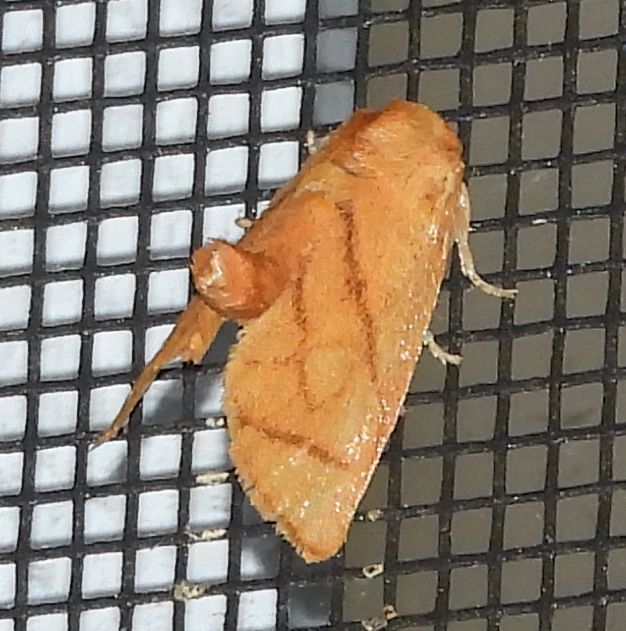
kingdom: Animalia
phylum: Arthropoda
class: Insecta
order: Lepidoptera
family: Limacodidae
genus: Apoda
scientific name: Apoda y-inversa
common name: Yellow-collared slug moth
